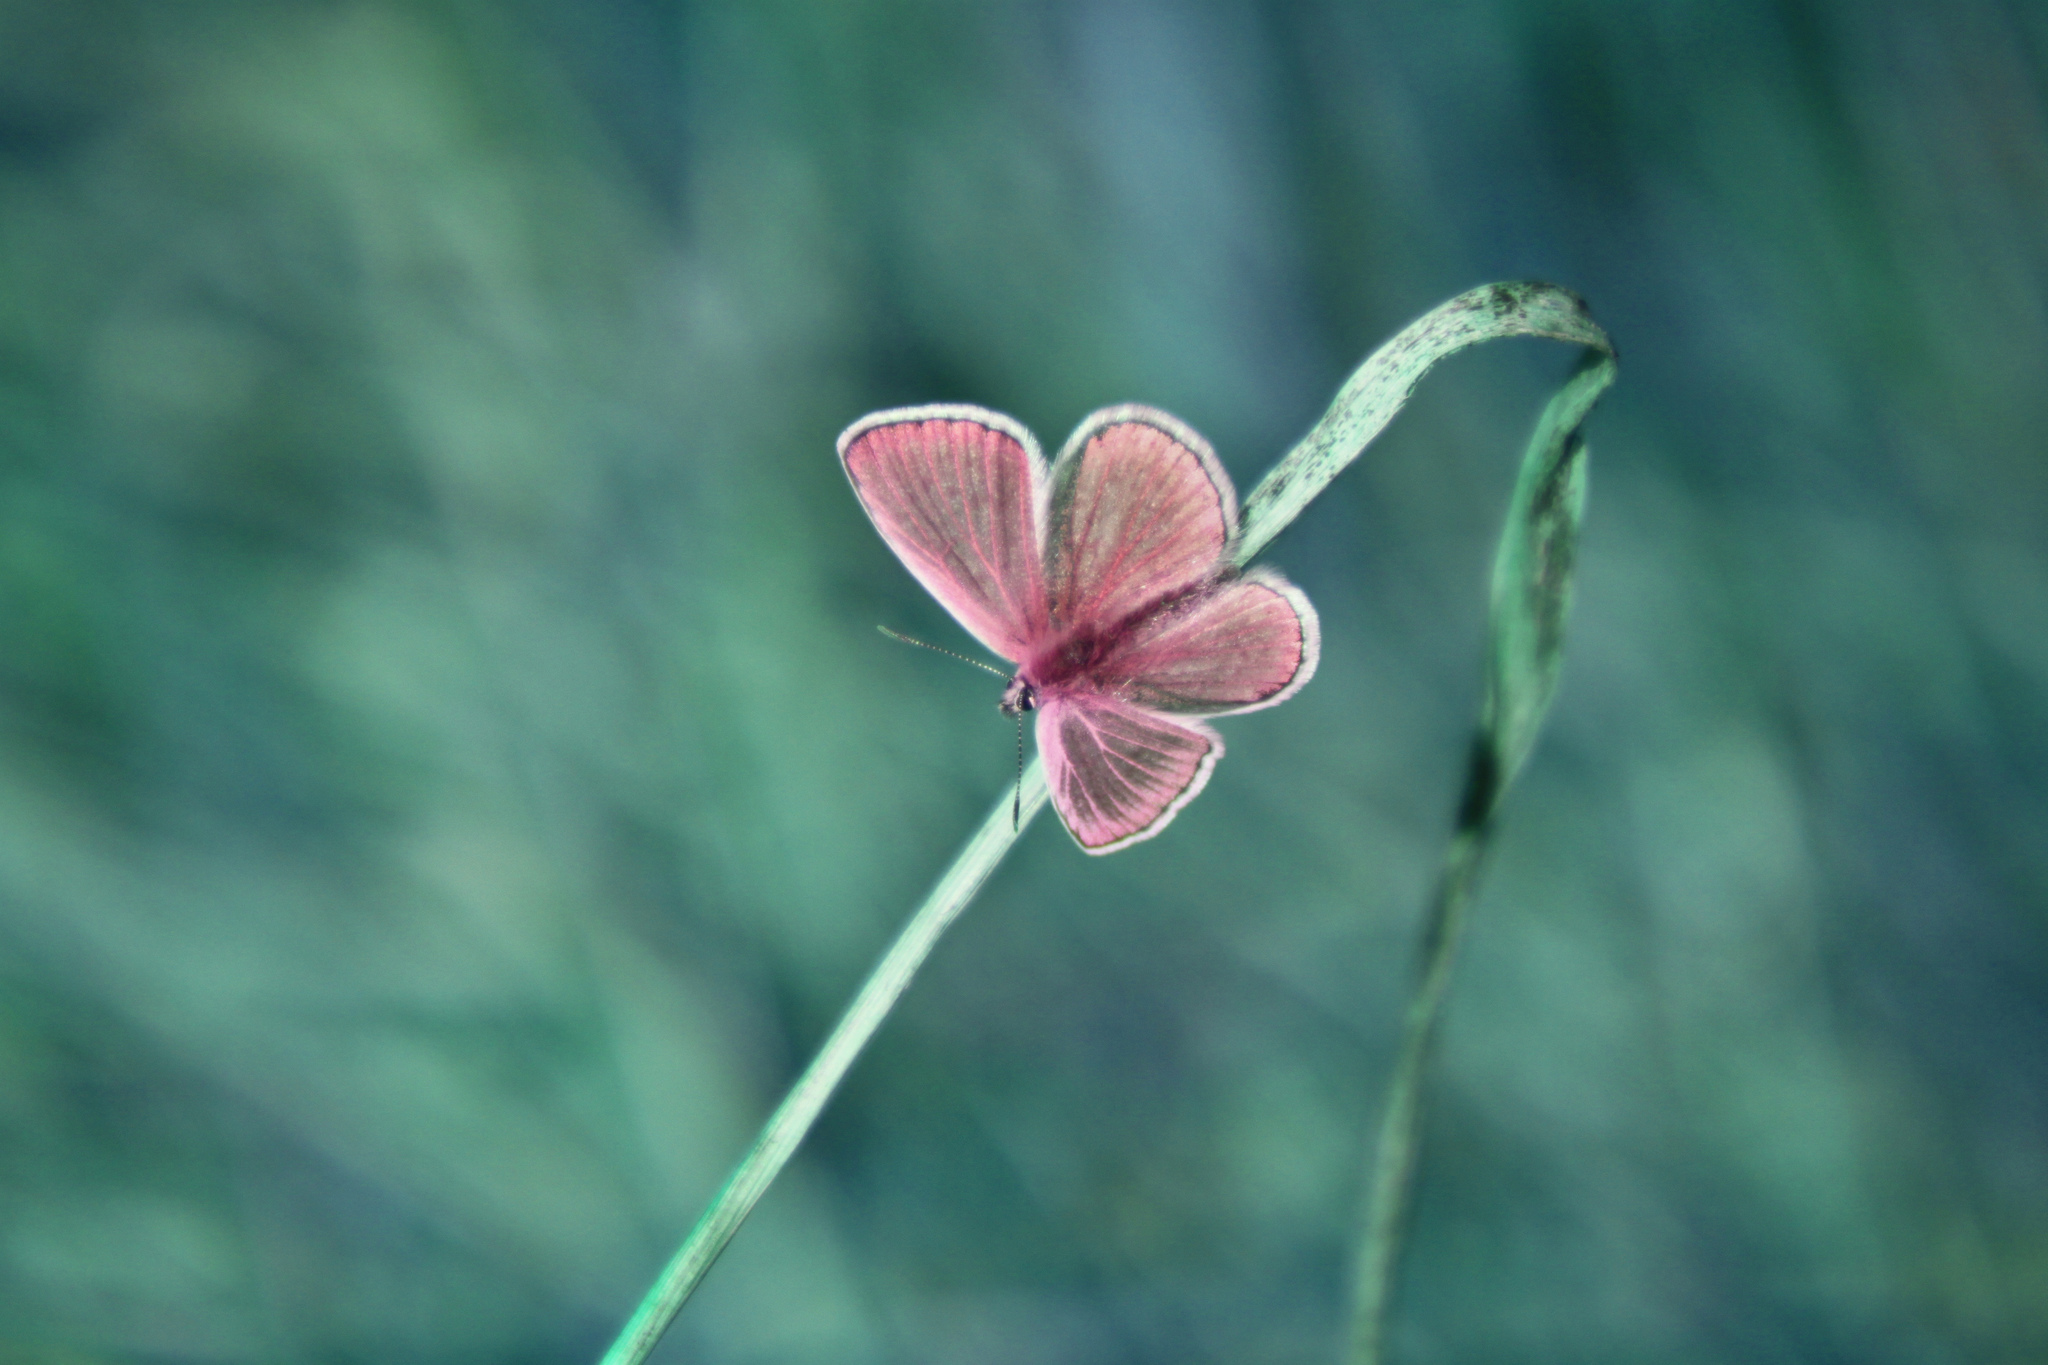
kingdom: Animalia
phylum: Arthropoda
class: Insecta
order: Lepidoptera
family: Lycaenidae
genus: Polyommatus
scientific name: Polyommatus icarus
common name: Common blue
